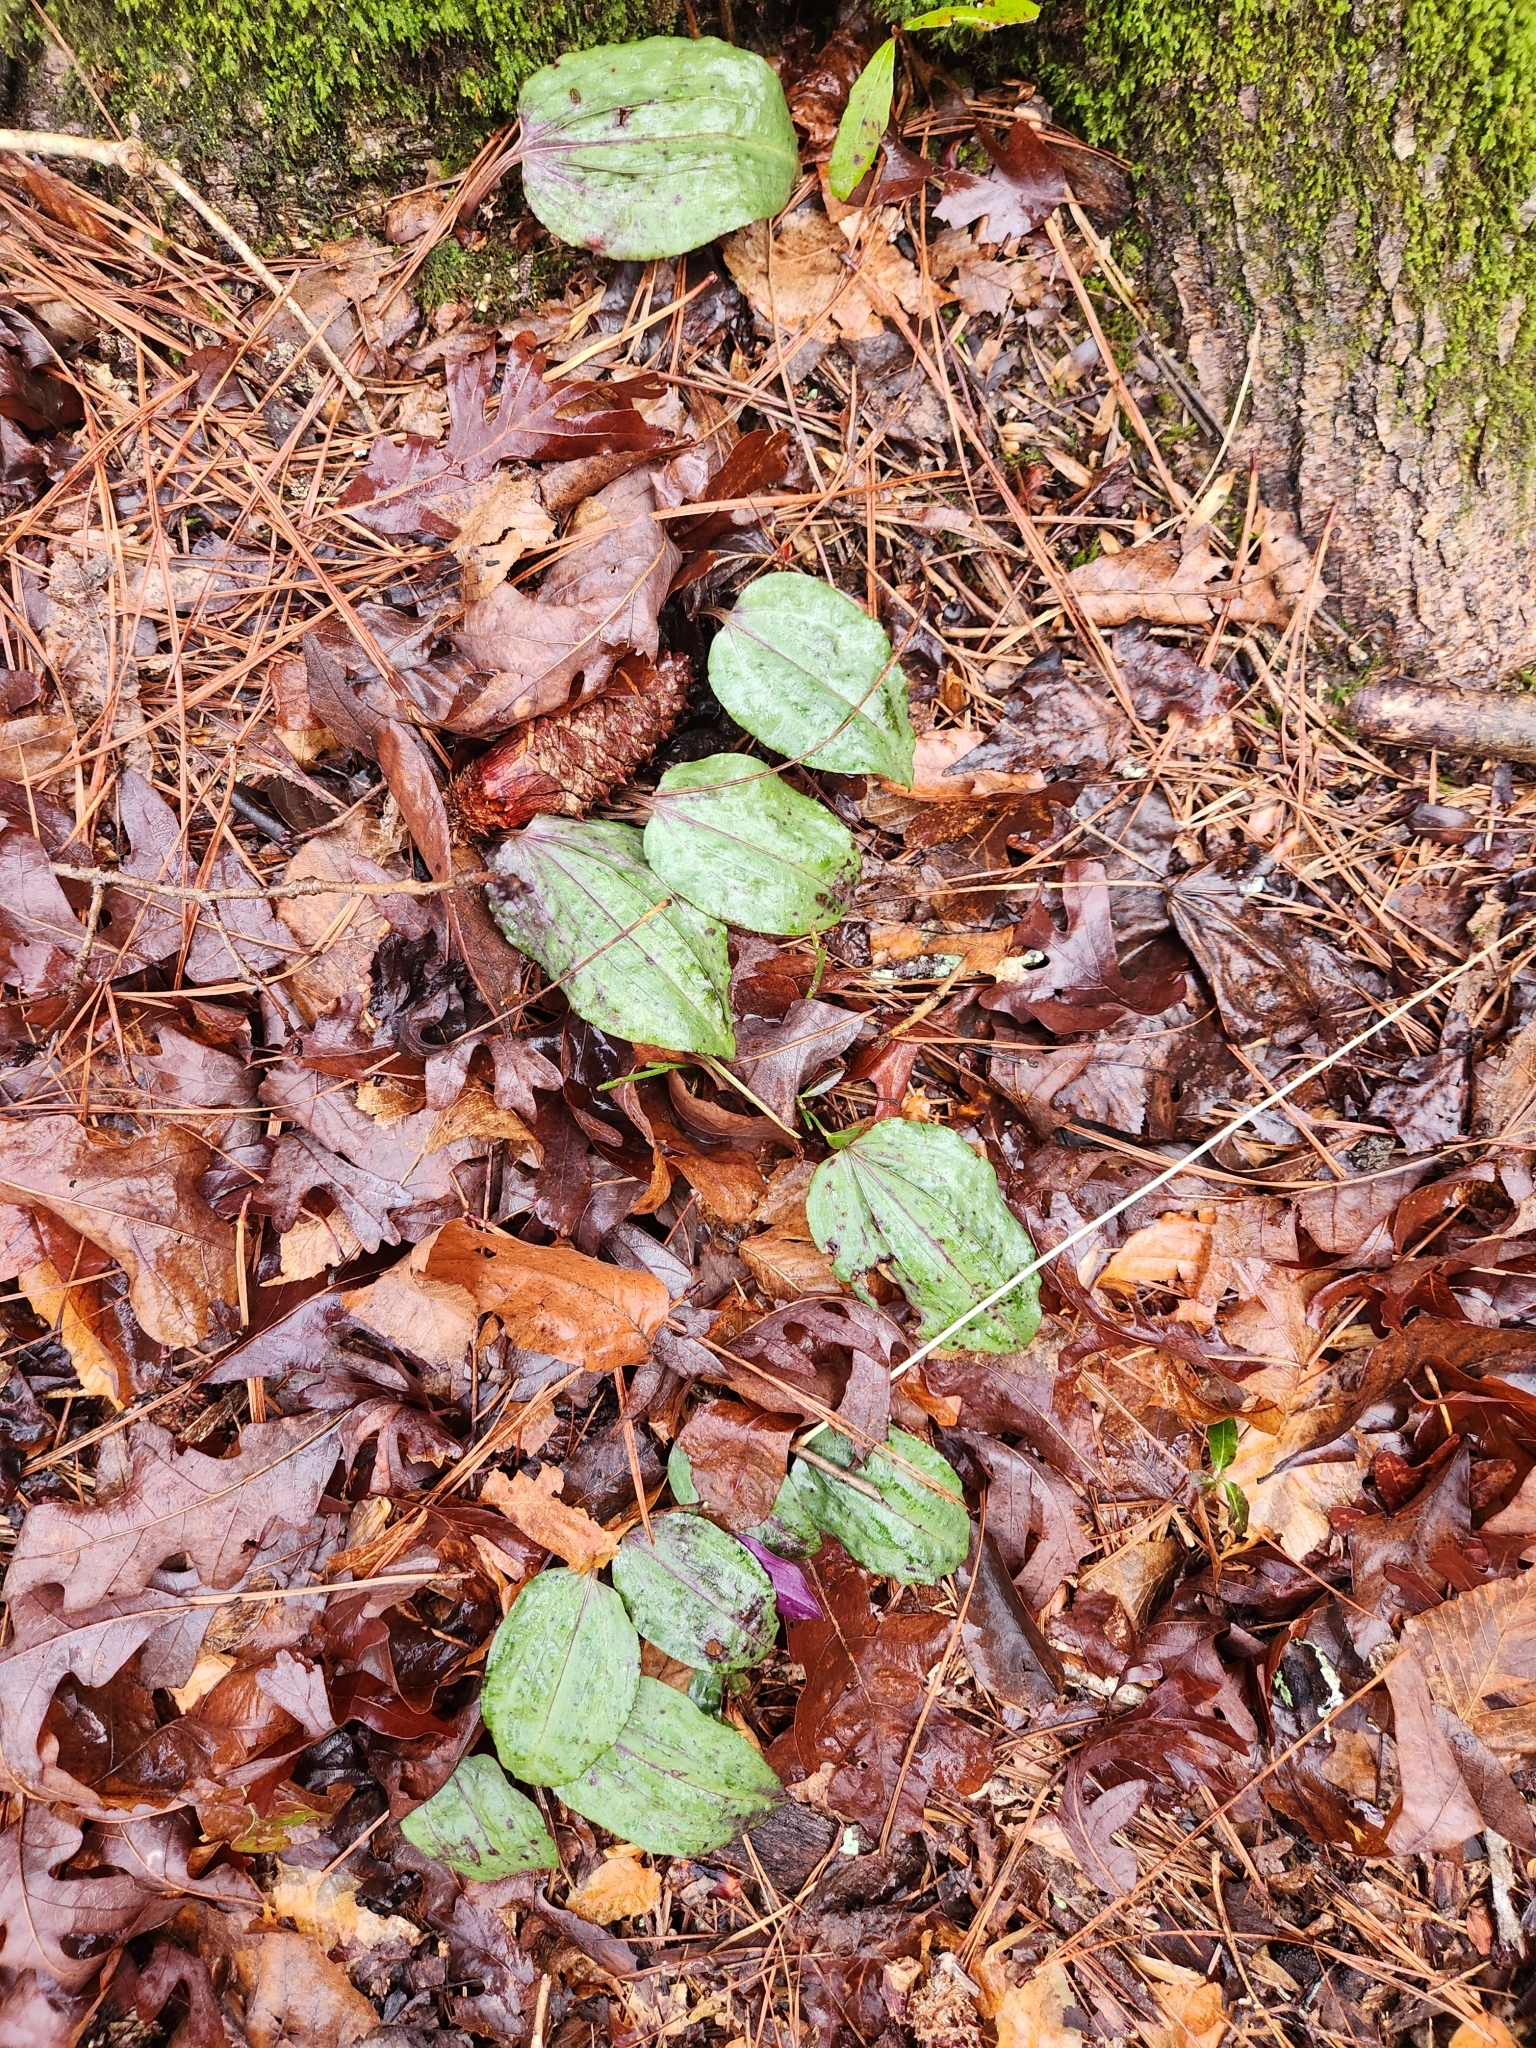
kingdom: Plantae
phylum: Tracheophyta
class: Liliopsida
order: Asparagales
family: Orchidaceae
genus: Tipularia
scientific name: Tipularia discolor
